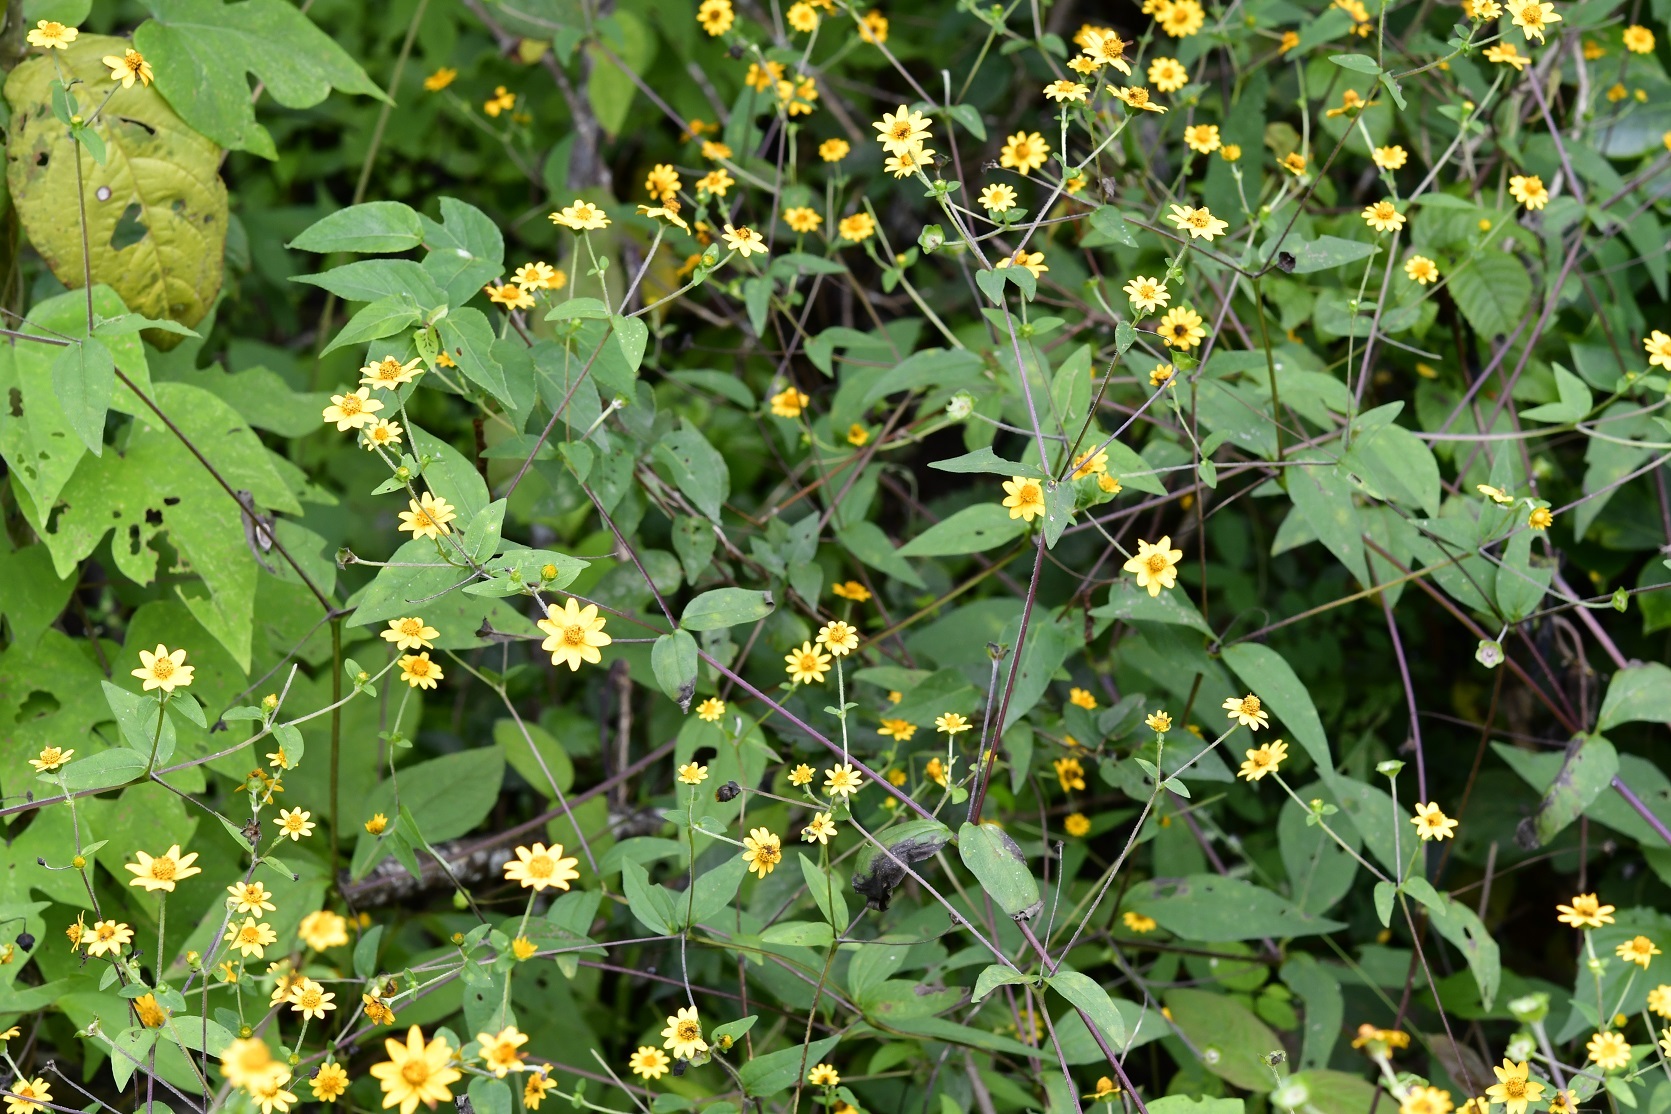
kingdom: Plantae
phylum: Tracheophyta
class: Magnoliopsida
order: Asterales
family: Asteraceae
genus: Melampodium
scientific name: Melampodium divaricatum
